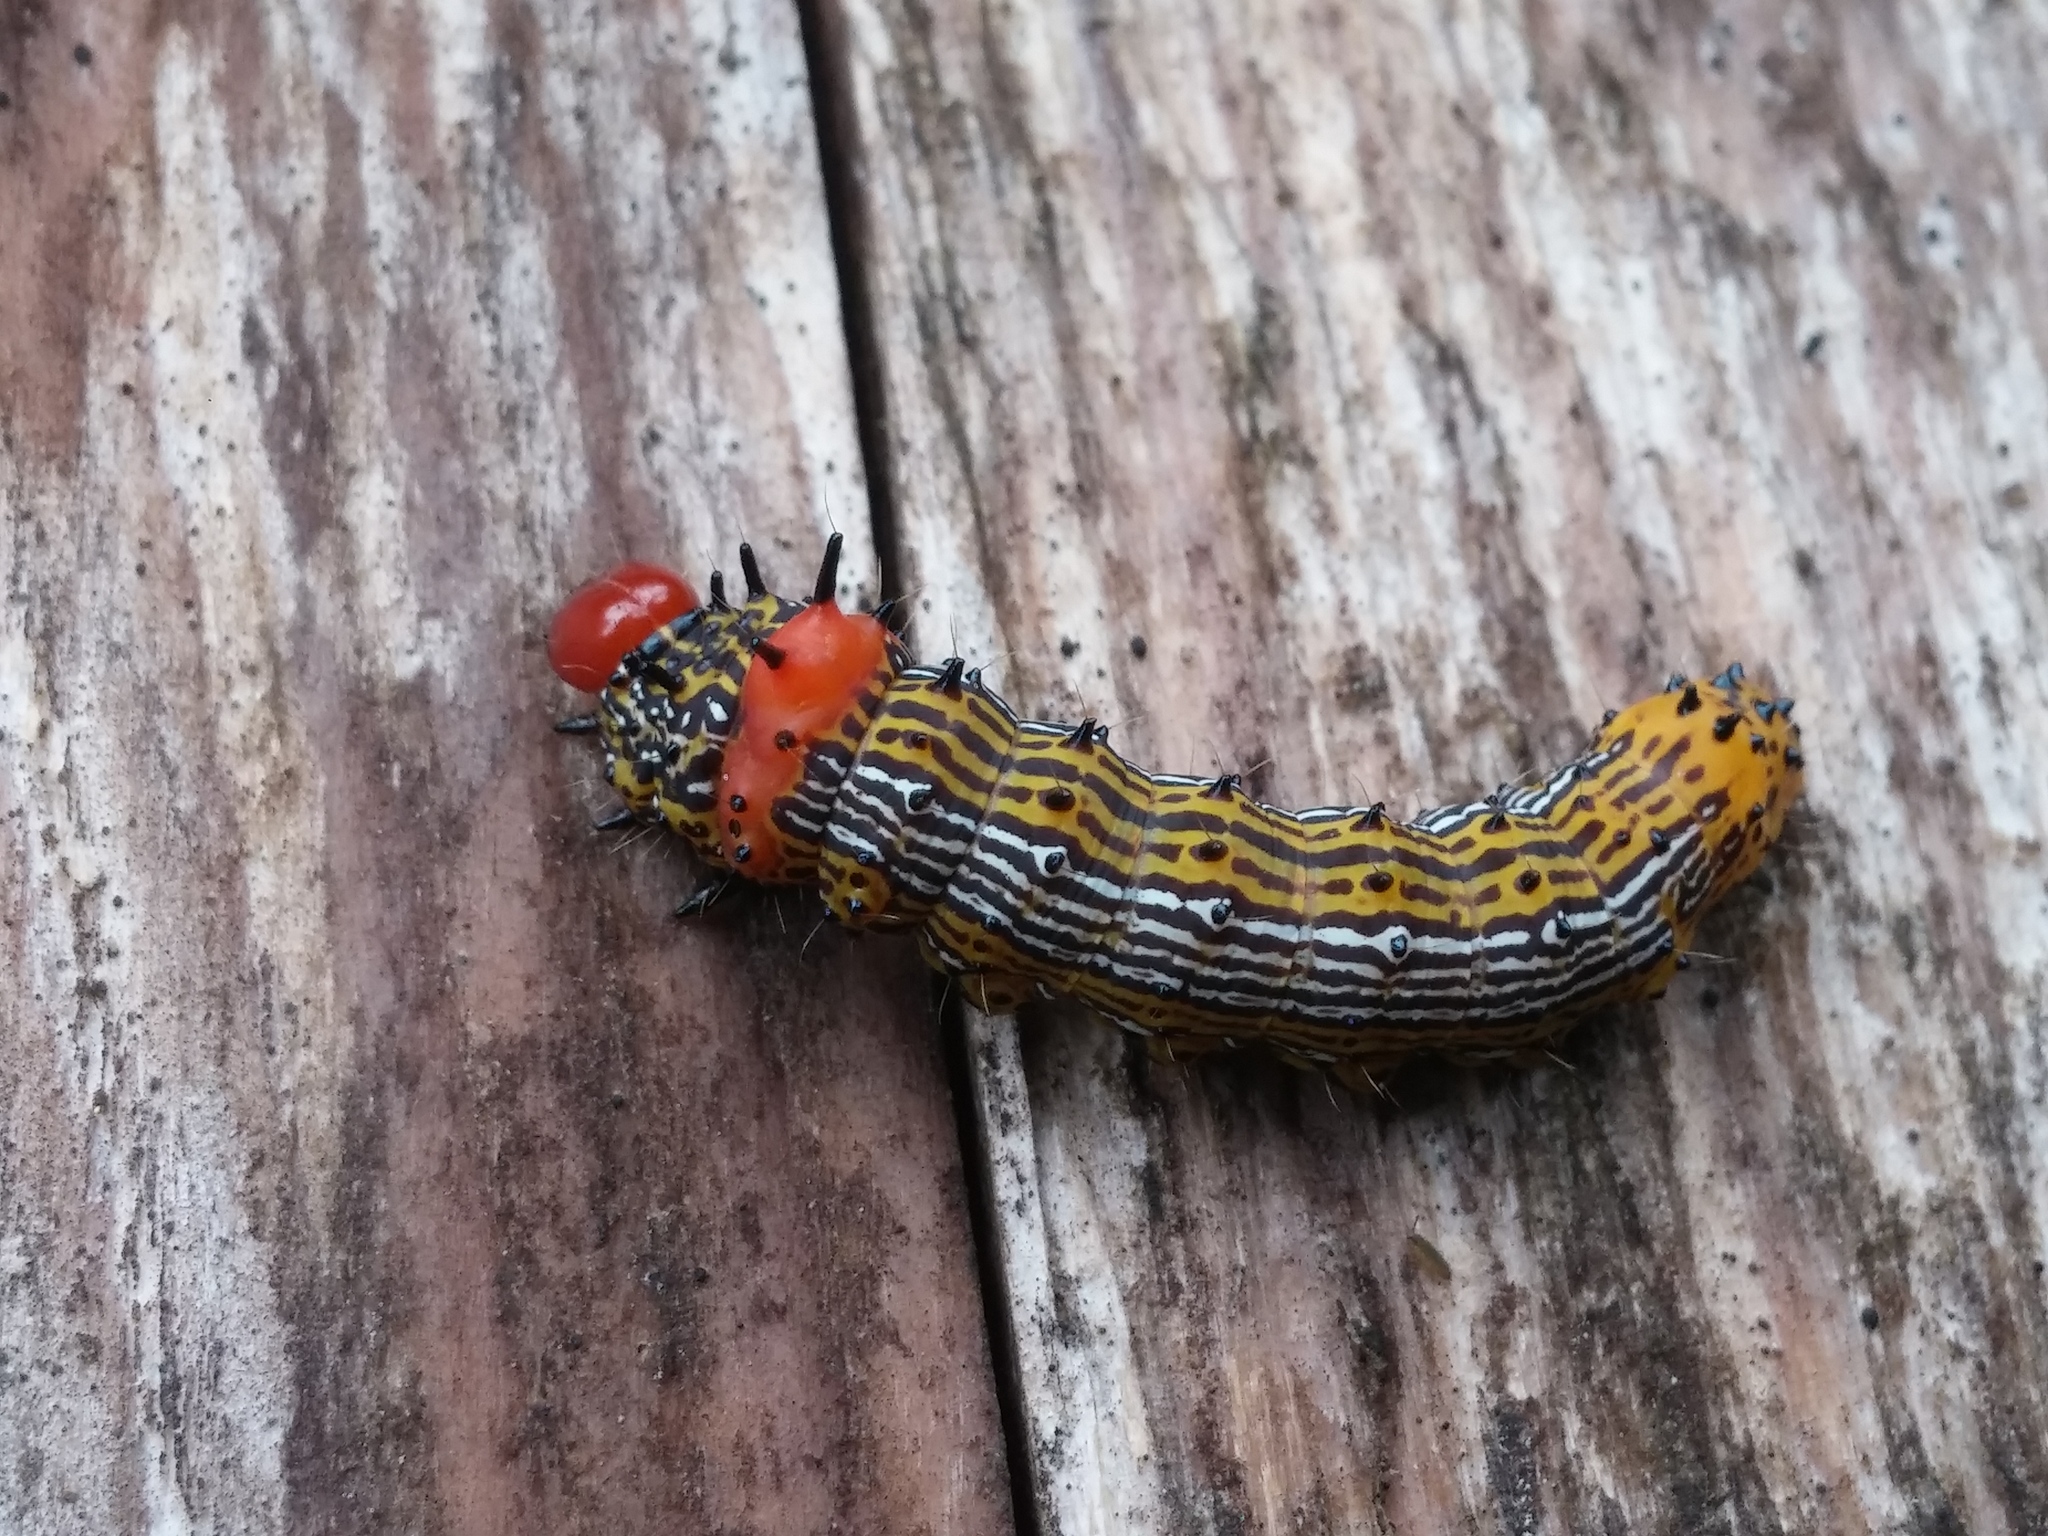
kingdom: Animalia
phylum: Arthropoda
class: Insecta
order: Lepidoptera
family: Notodontidae
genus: Schizura
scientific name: Schizura
